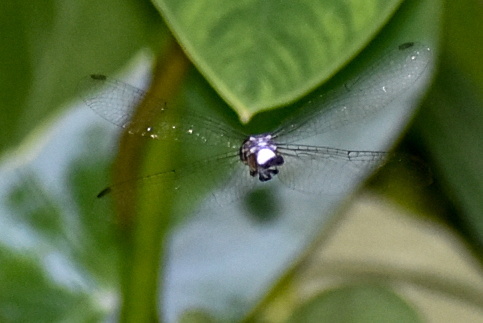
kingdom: Animalia
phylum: Arthropoda
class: Insecta
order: Odonata
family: Libellulidae
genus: Brachydiplax
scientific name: Brachydiplax sobrina
